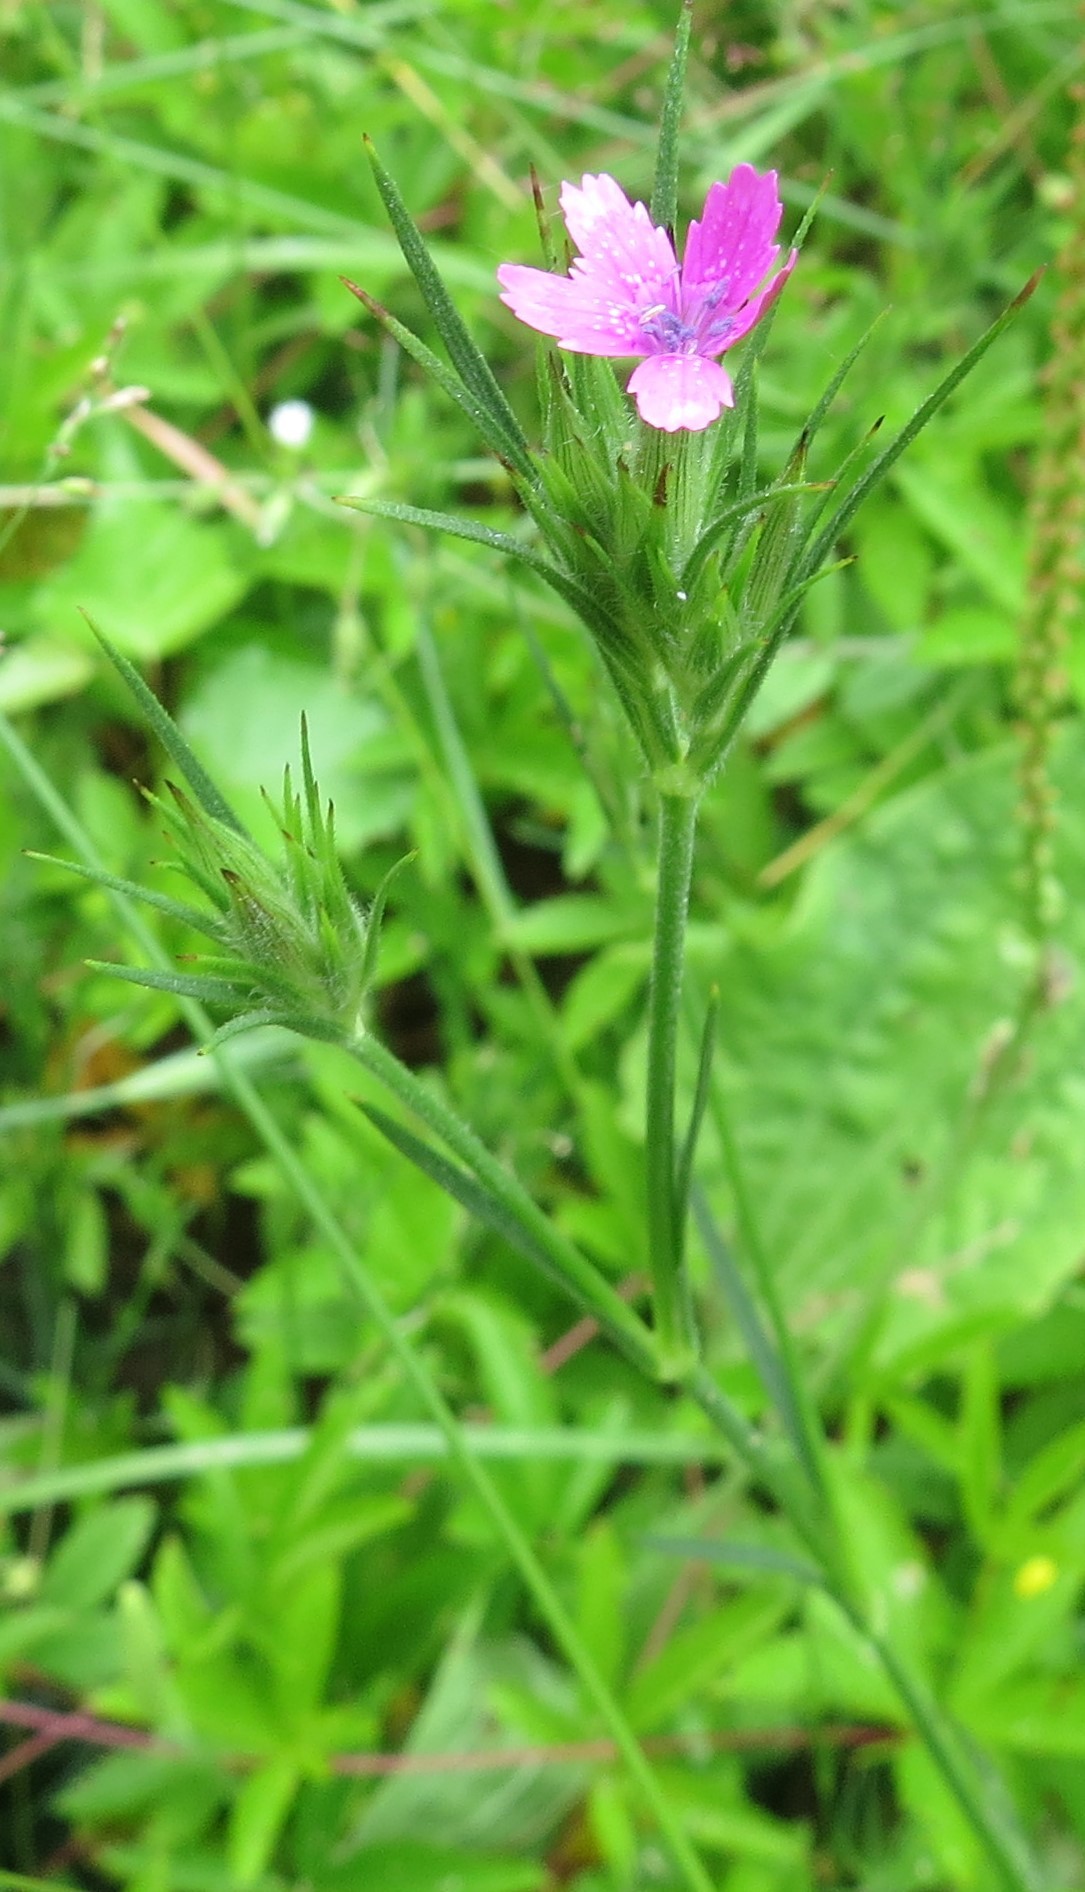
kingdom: Plantae
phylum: Tracheophyta
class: Magnoliopsida
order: Caryophyllales
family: Caryophyllaceae
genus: Dianthus
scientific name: Dianthus armeria
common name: Deptford pink
